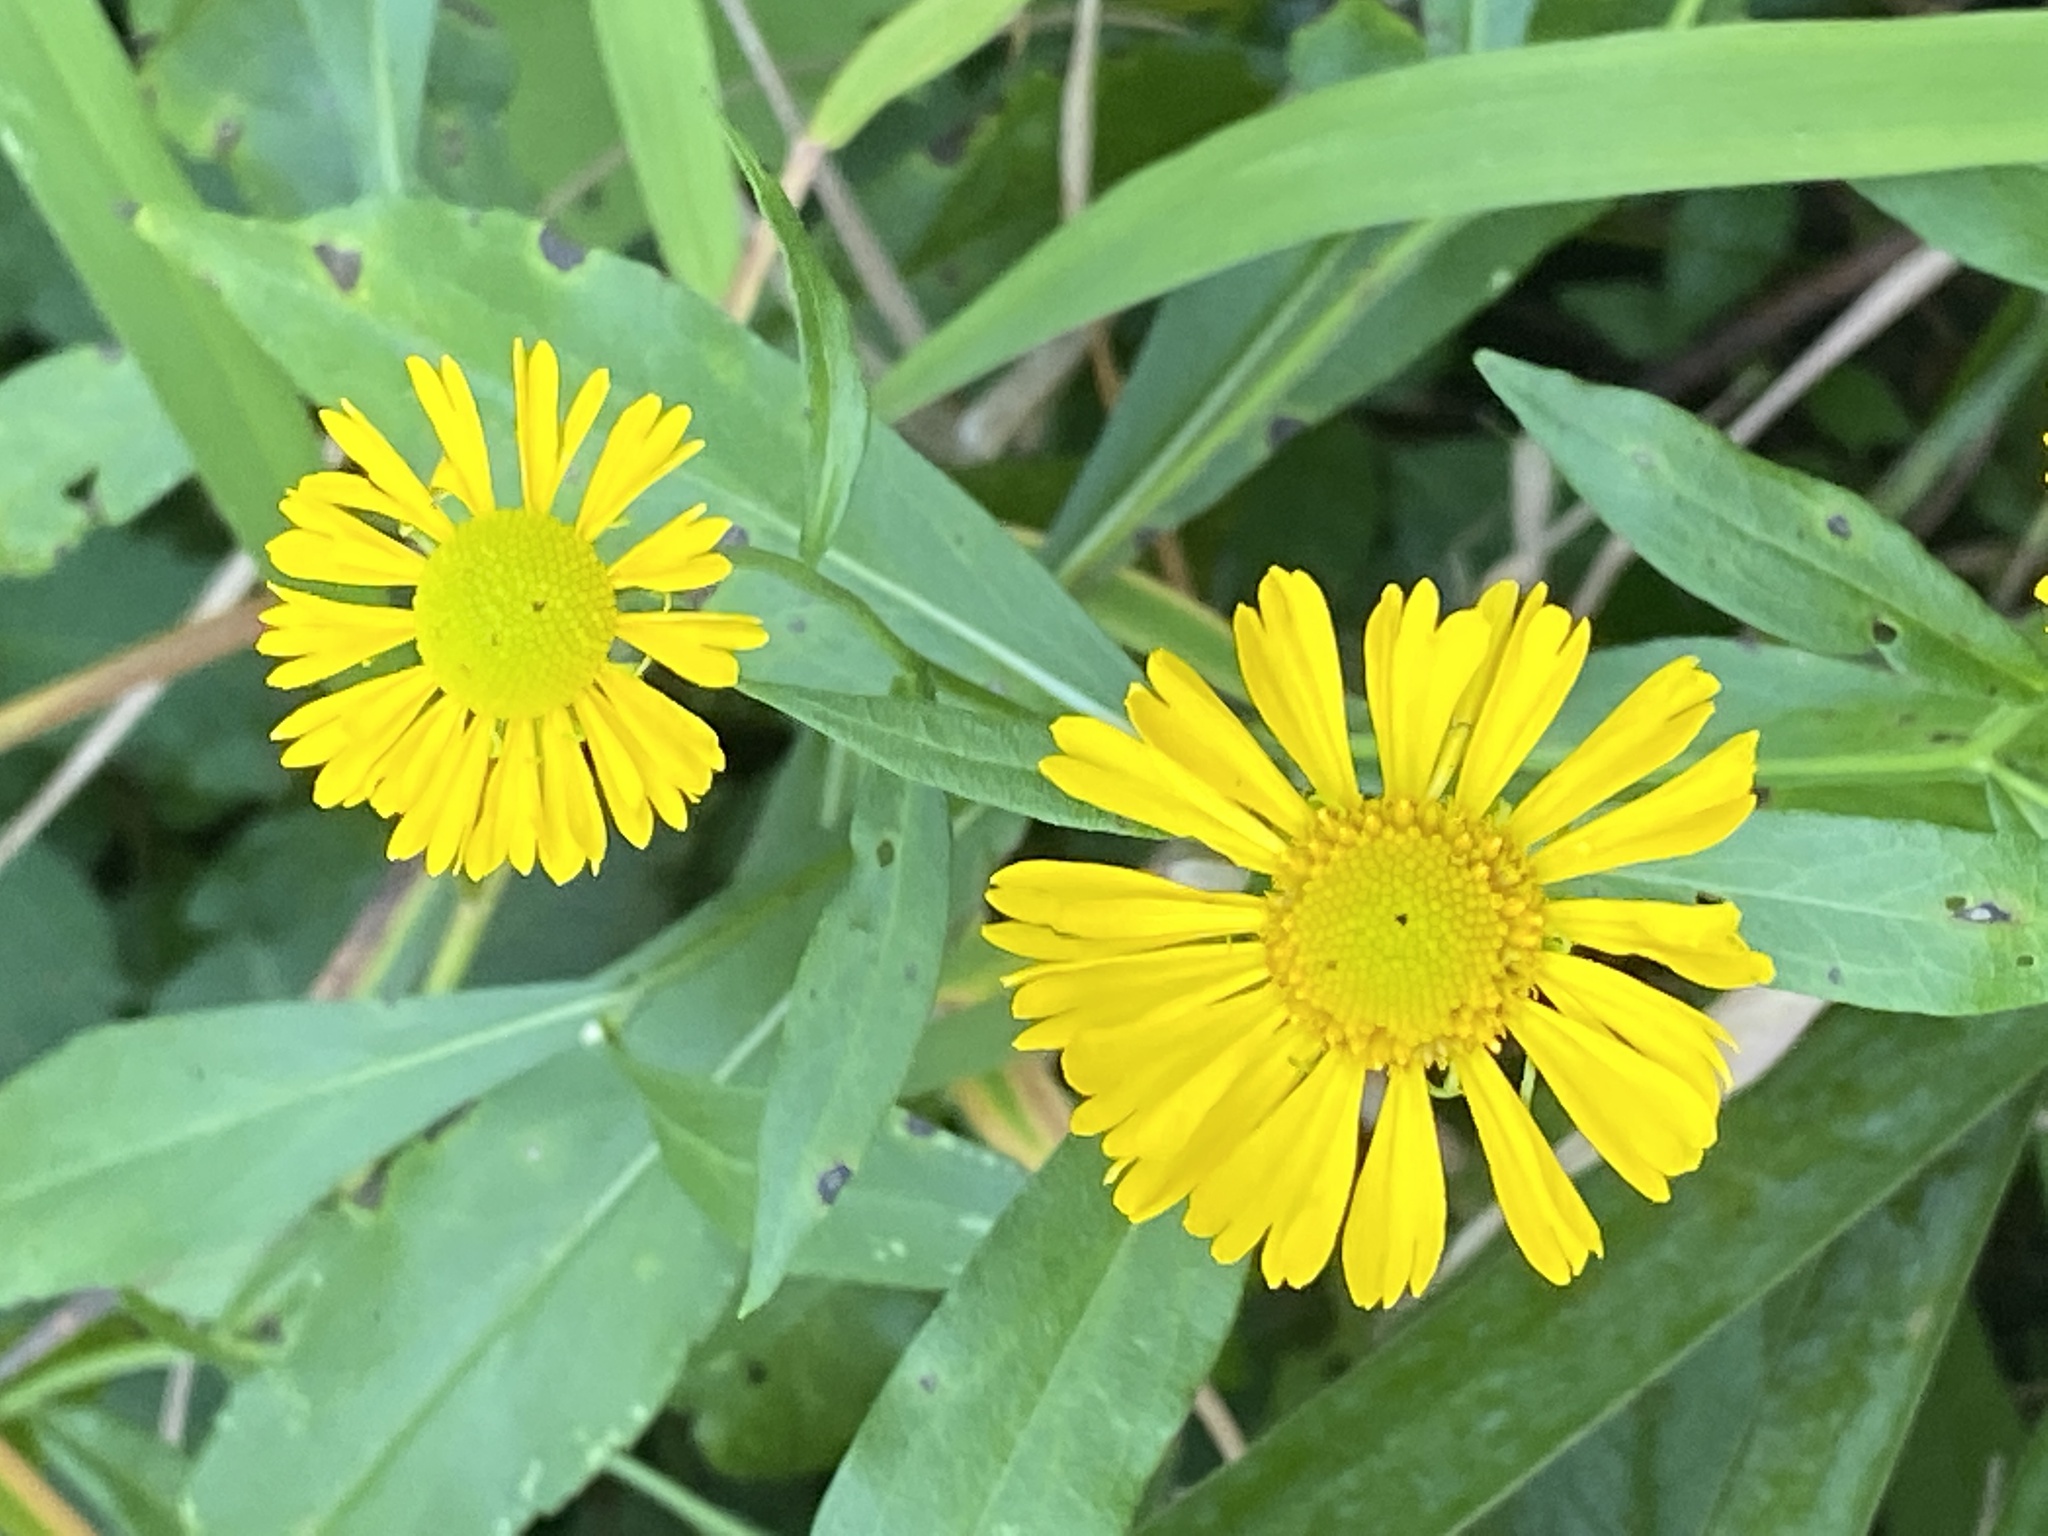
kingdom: Plantae
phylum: Tracheophyta
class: Magnoliopsida
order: Asterales
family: Asteraceae
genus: Helenium
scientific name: Helenium autumnale
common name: Sneezeweed
